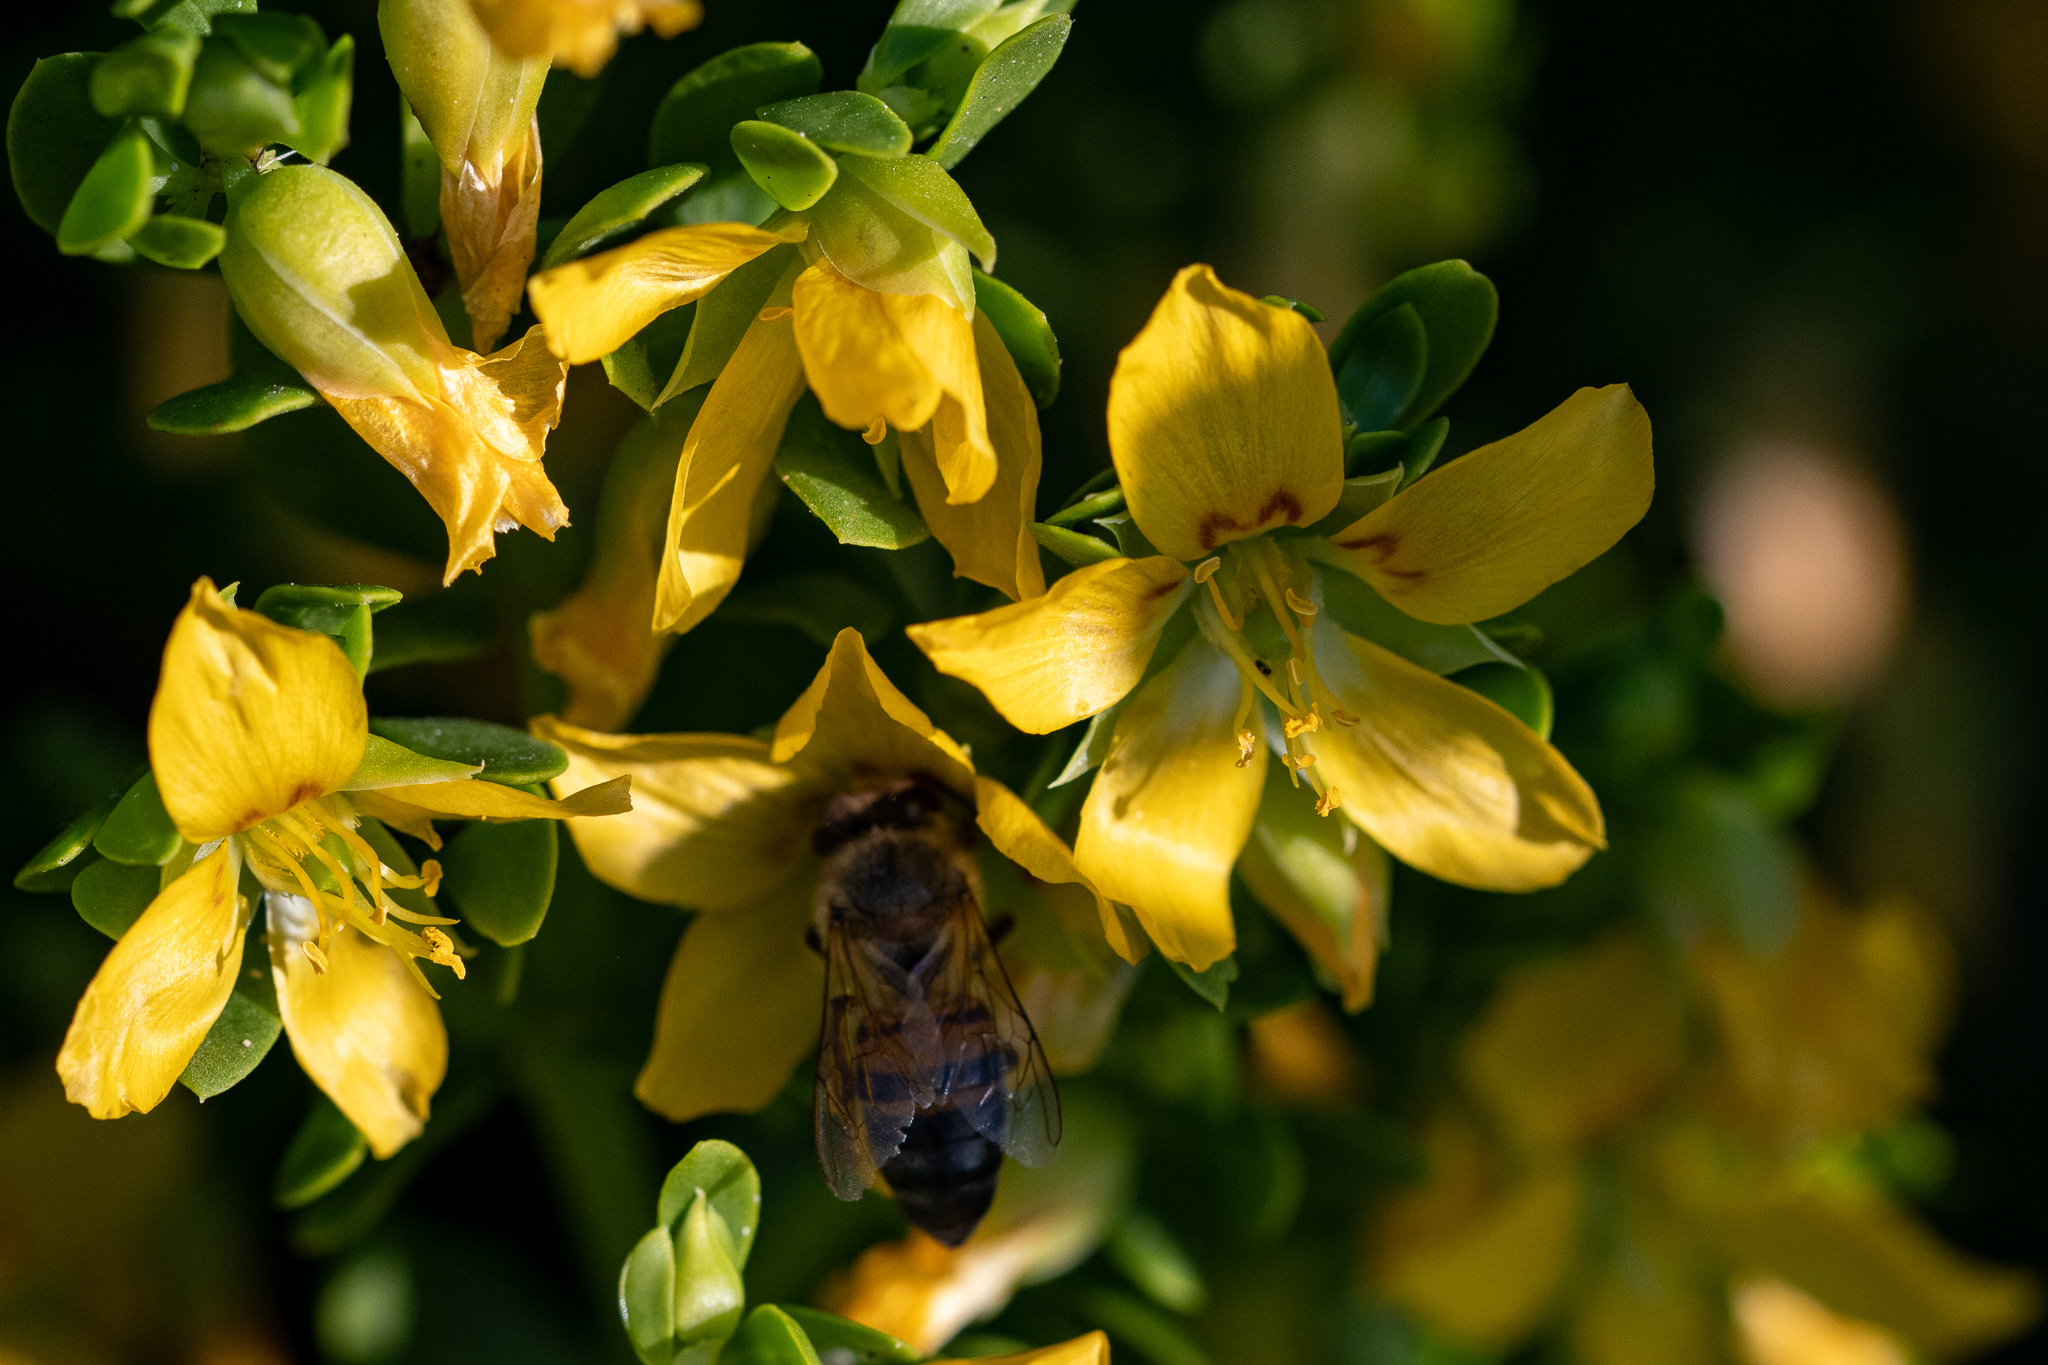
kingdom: Animalia
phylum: Arthropoda
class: Insecta
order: Hymenoptera
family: Apidae
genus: Apis
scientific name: Apis mellifera
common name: Honey bee
